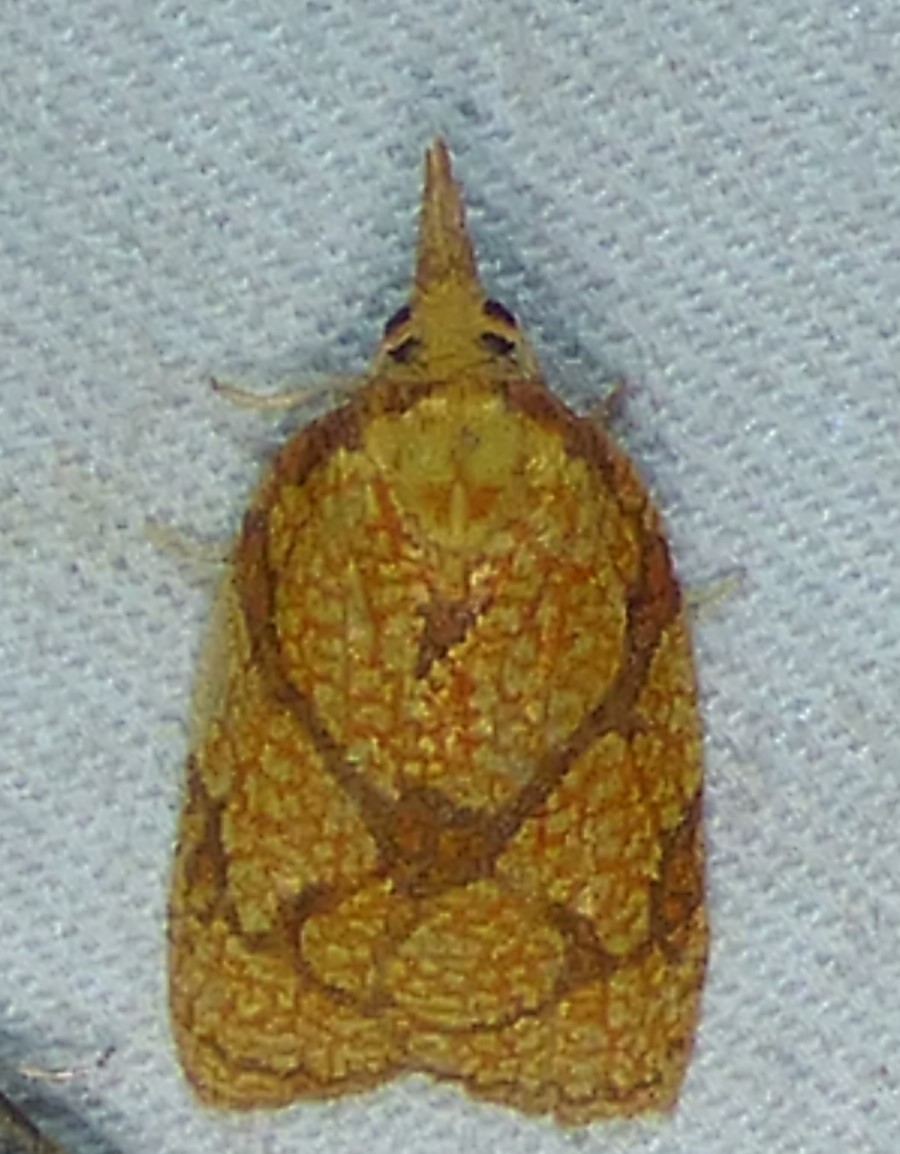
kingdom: Animalia
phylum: Arthropoda
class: Insecta
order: Lepidoptera
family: Tortricidae
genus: Cenopis
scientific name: Cenopis reticulatana
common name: Reticulated fruitworm moth
